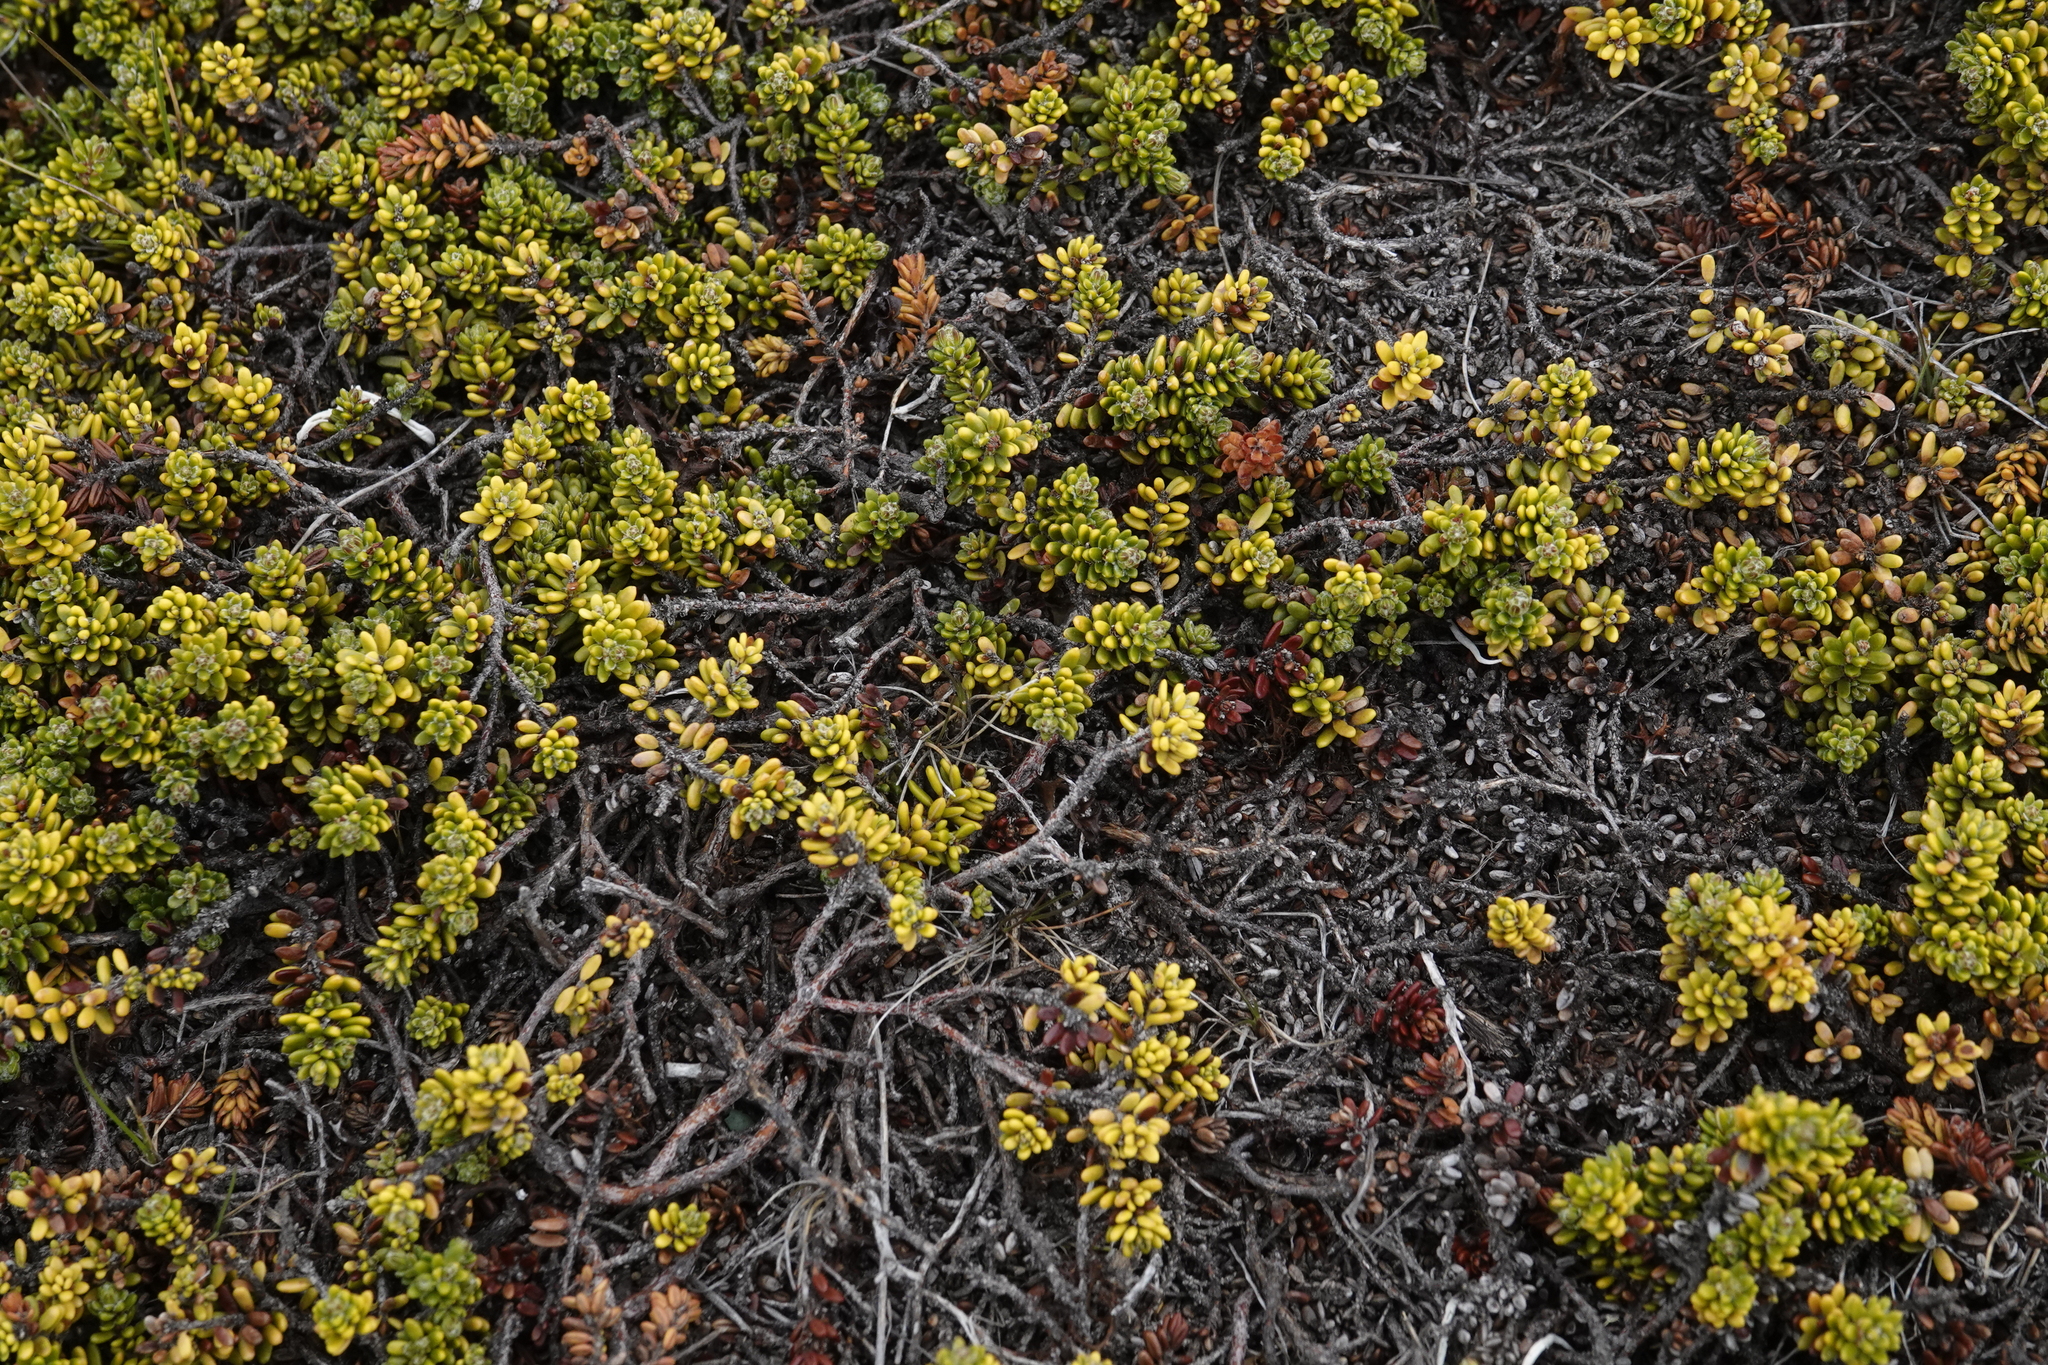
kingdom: Plantae
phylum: Tracheophyta
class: Magnoliopsida
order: Ericales
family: Ericaceae
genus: Empetrum
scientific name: Empetrum rubrum
